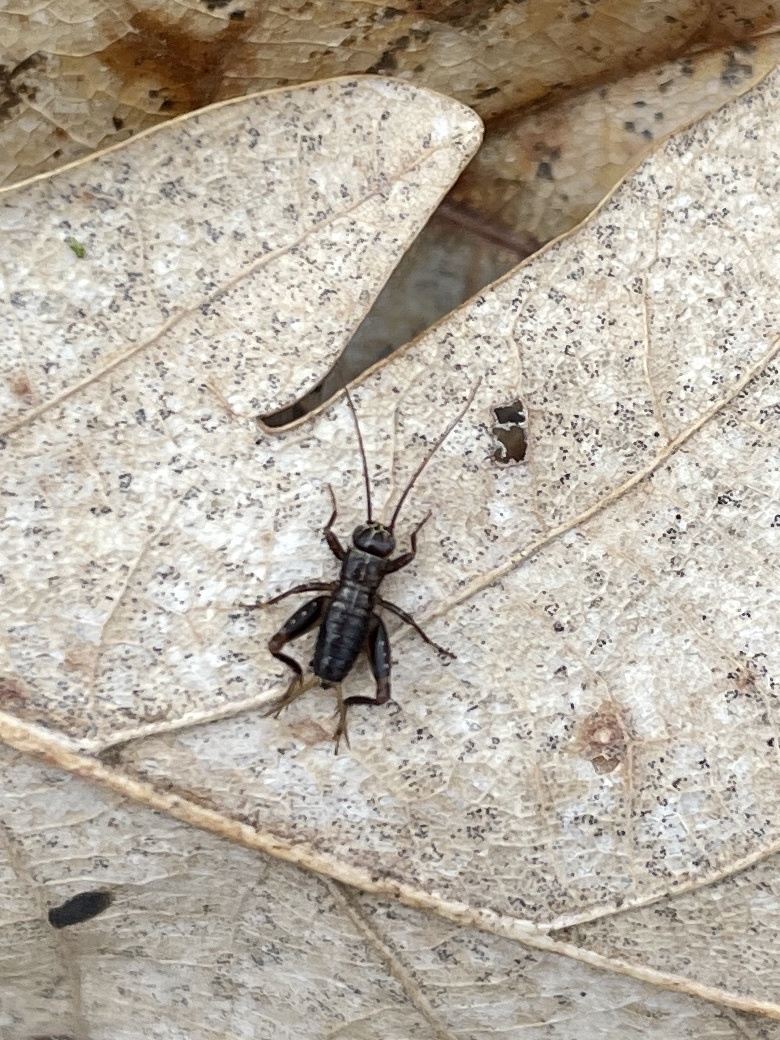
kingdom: Animalia
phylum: Arthropoda
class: Insecta
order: Orthoptera
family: Trigonidiidae
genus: Nemobius
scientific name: Nemobius sylvestris
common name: Wood-cricket
